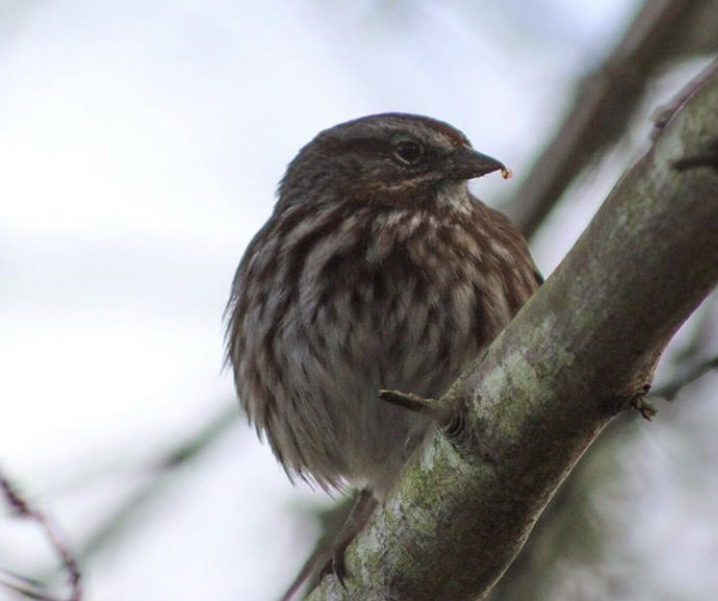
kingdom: Animalia
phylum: Chordata
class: Aves
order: Passeriformes
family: Passerellidae
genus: Melospiza
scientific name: Melospiza melodia
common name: Song sparrow
